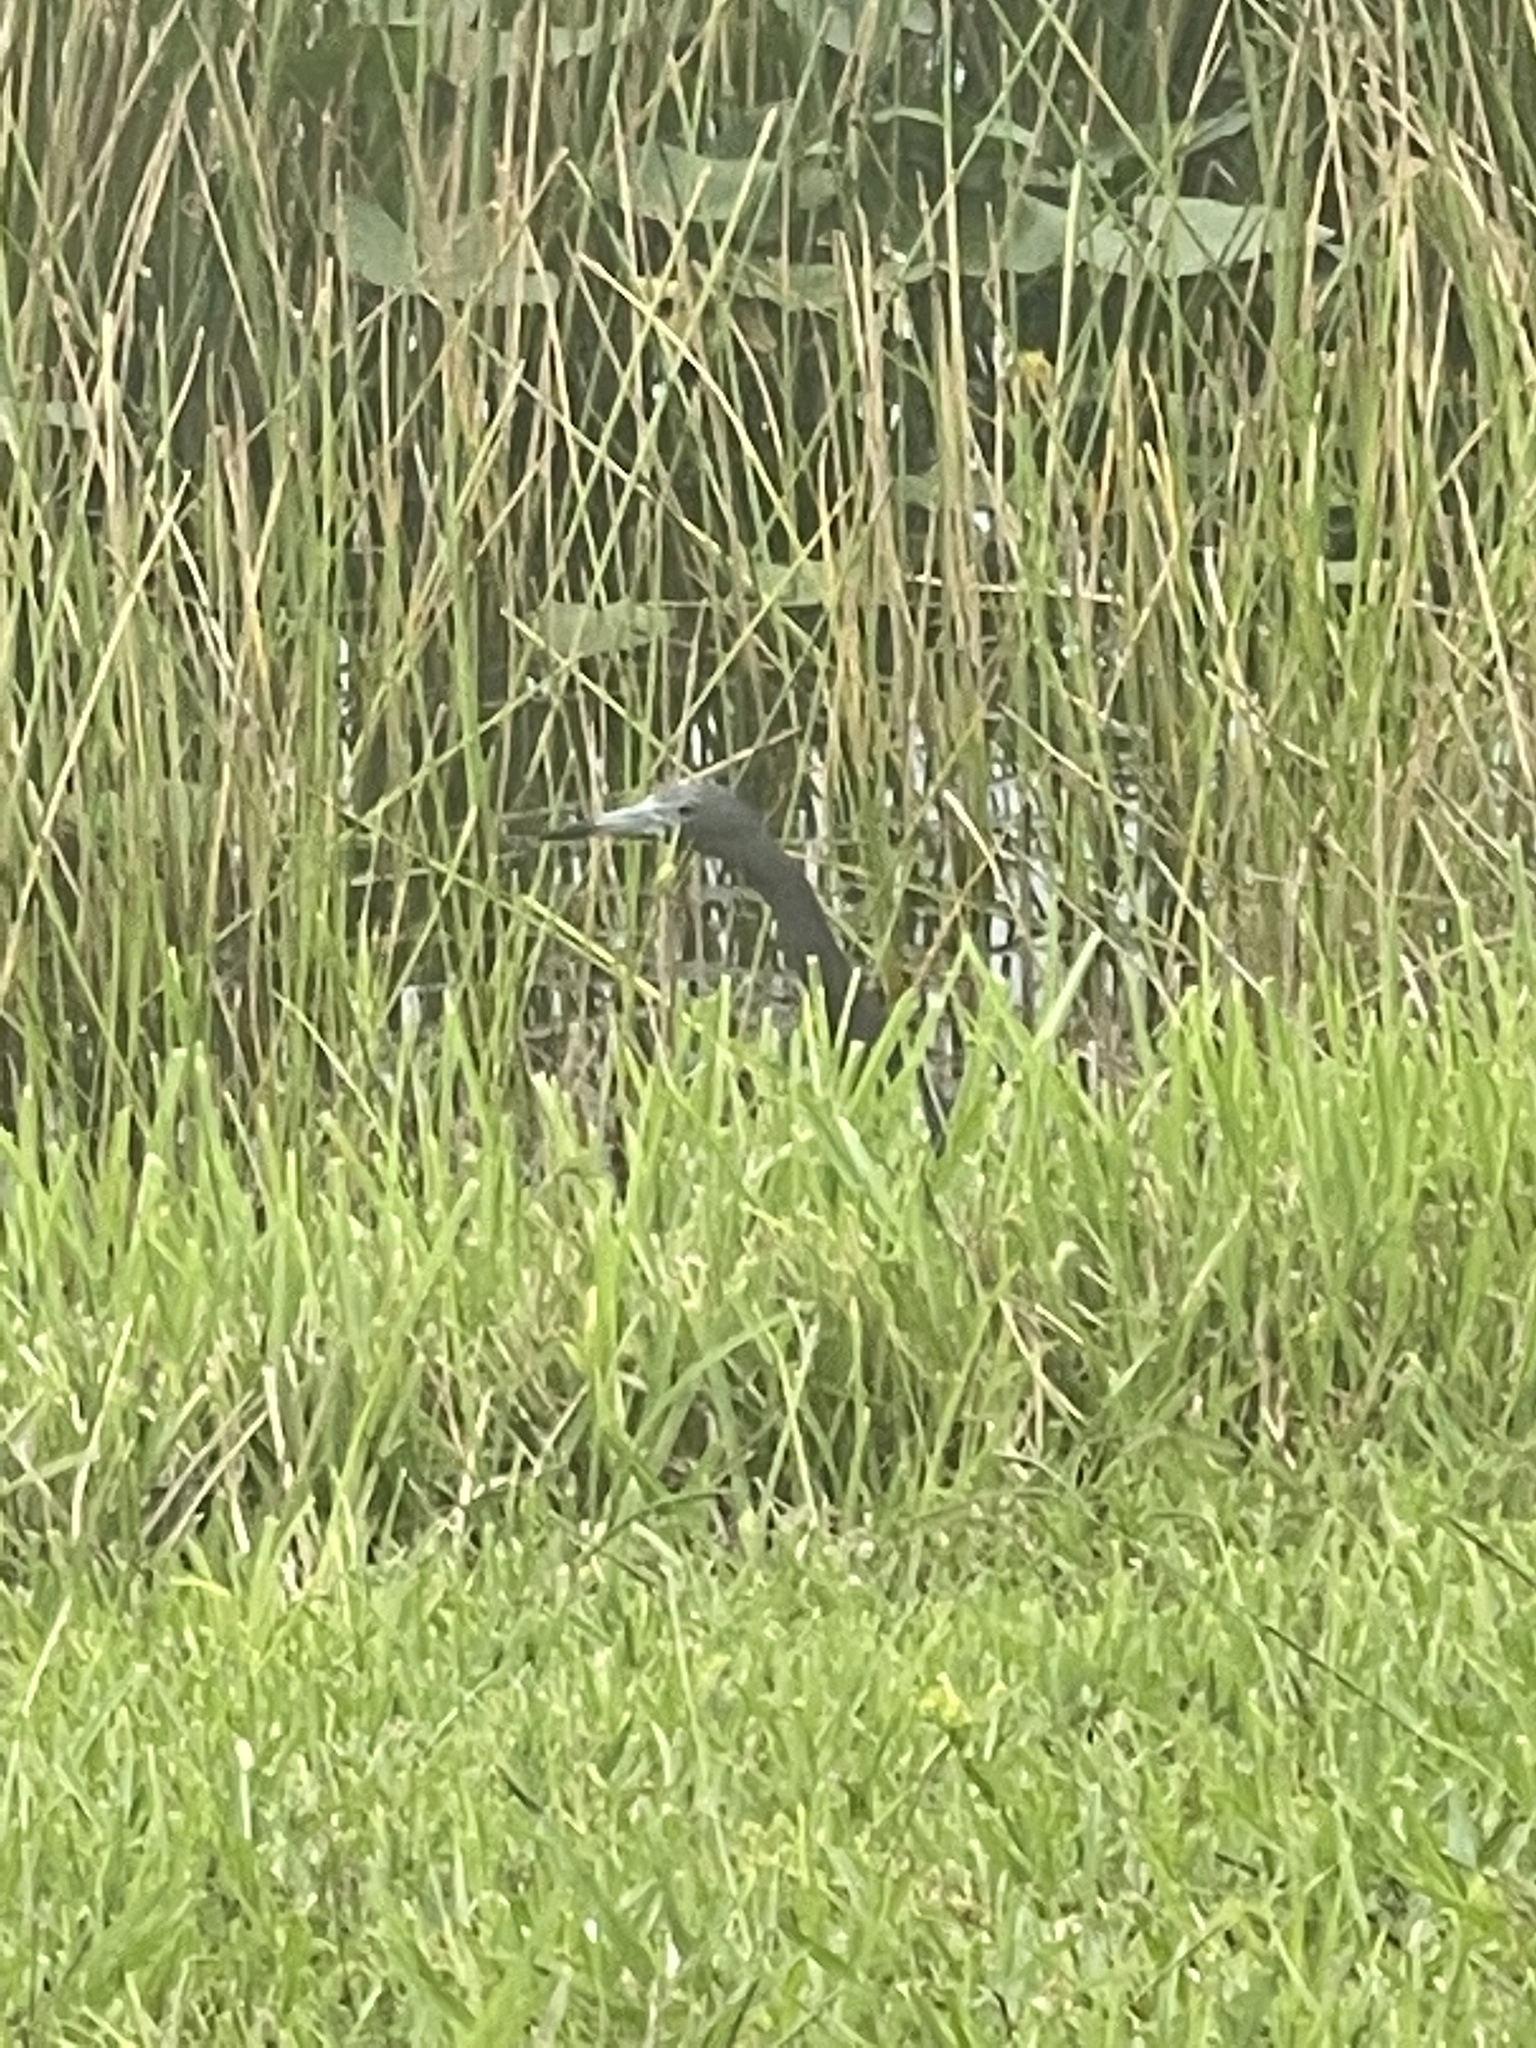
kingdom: Animalia
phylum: Chordata
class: Aves
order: Pelecaniformes
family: Ardeidae
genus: Egretta
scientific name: Egretta caerulea
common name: Little blue heron
